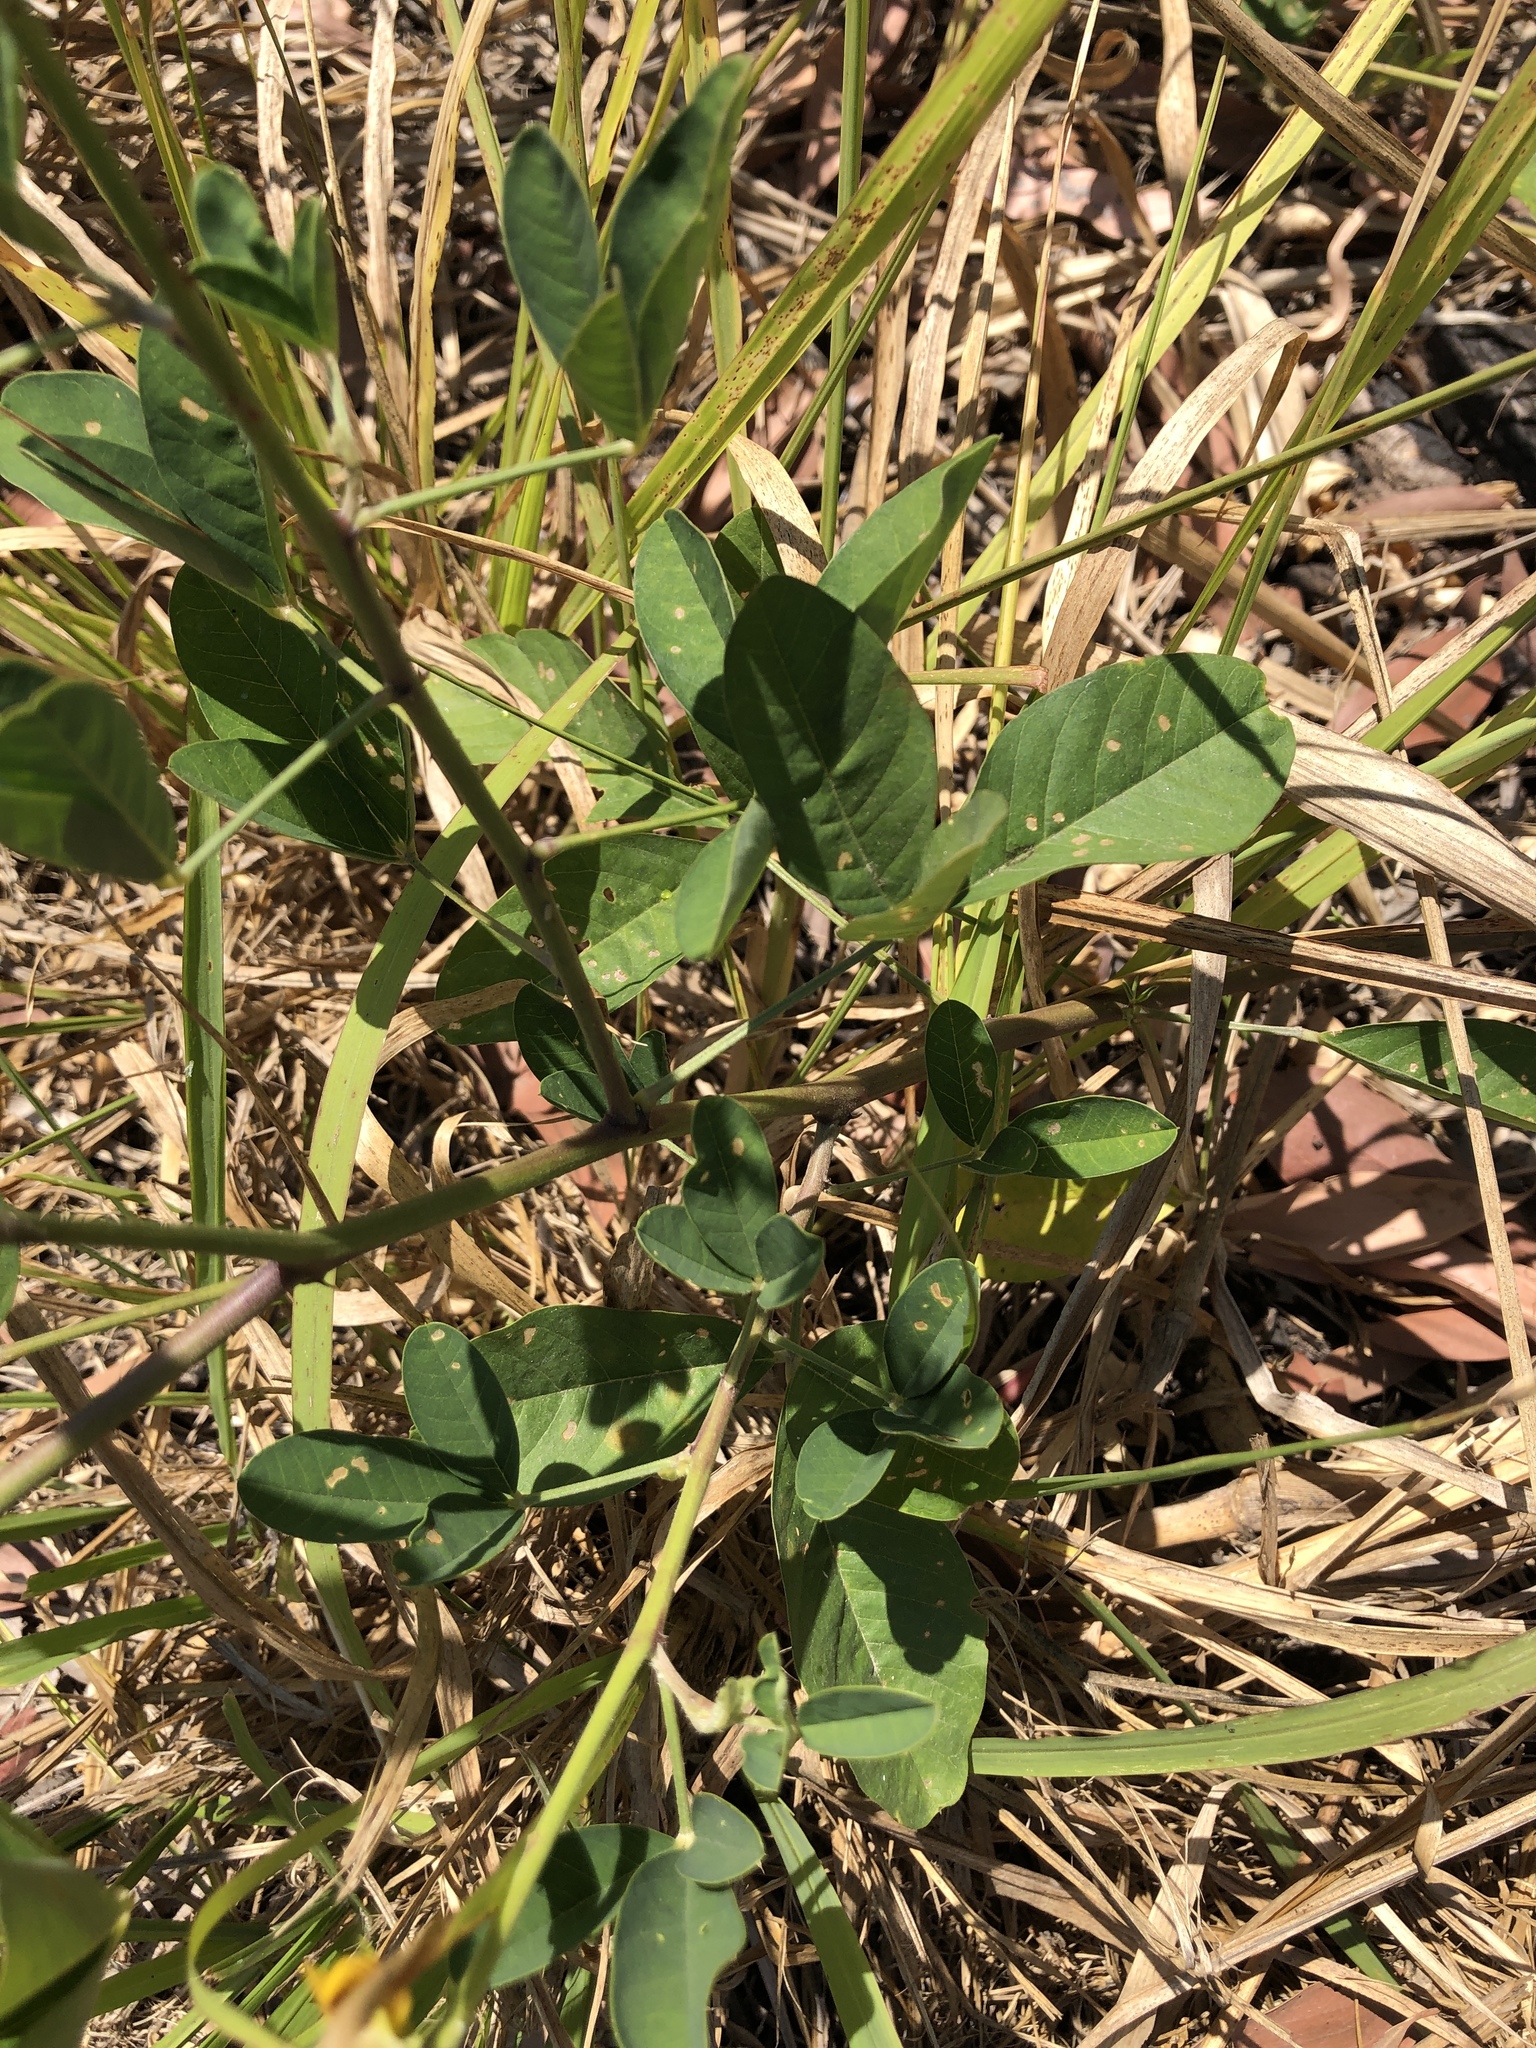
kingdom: Plantae
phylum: Tracheophyta
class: Magnoliopsida
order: Fabales
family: Fabaceae
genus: Crotalaria
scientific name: Crotalaria pallida
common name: Smooth rattlebox
